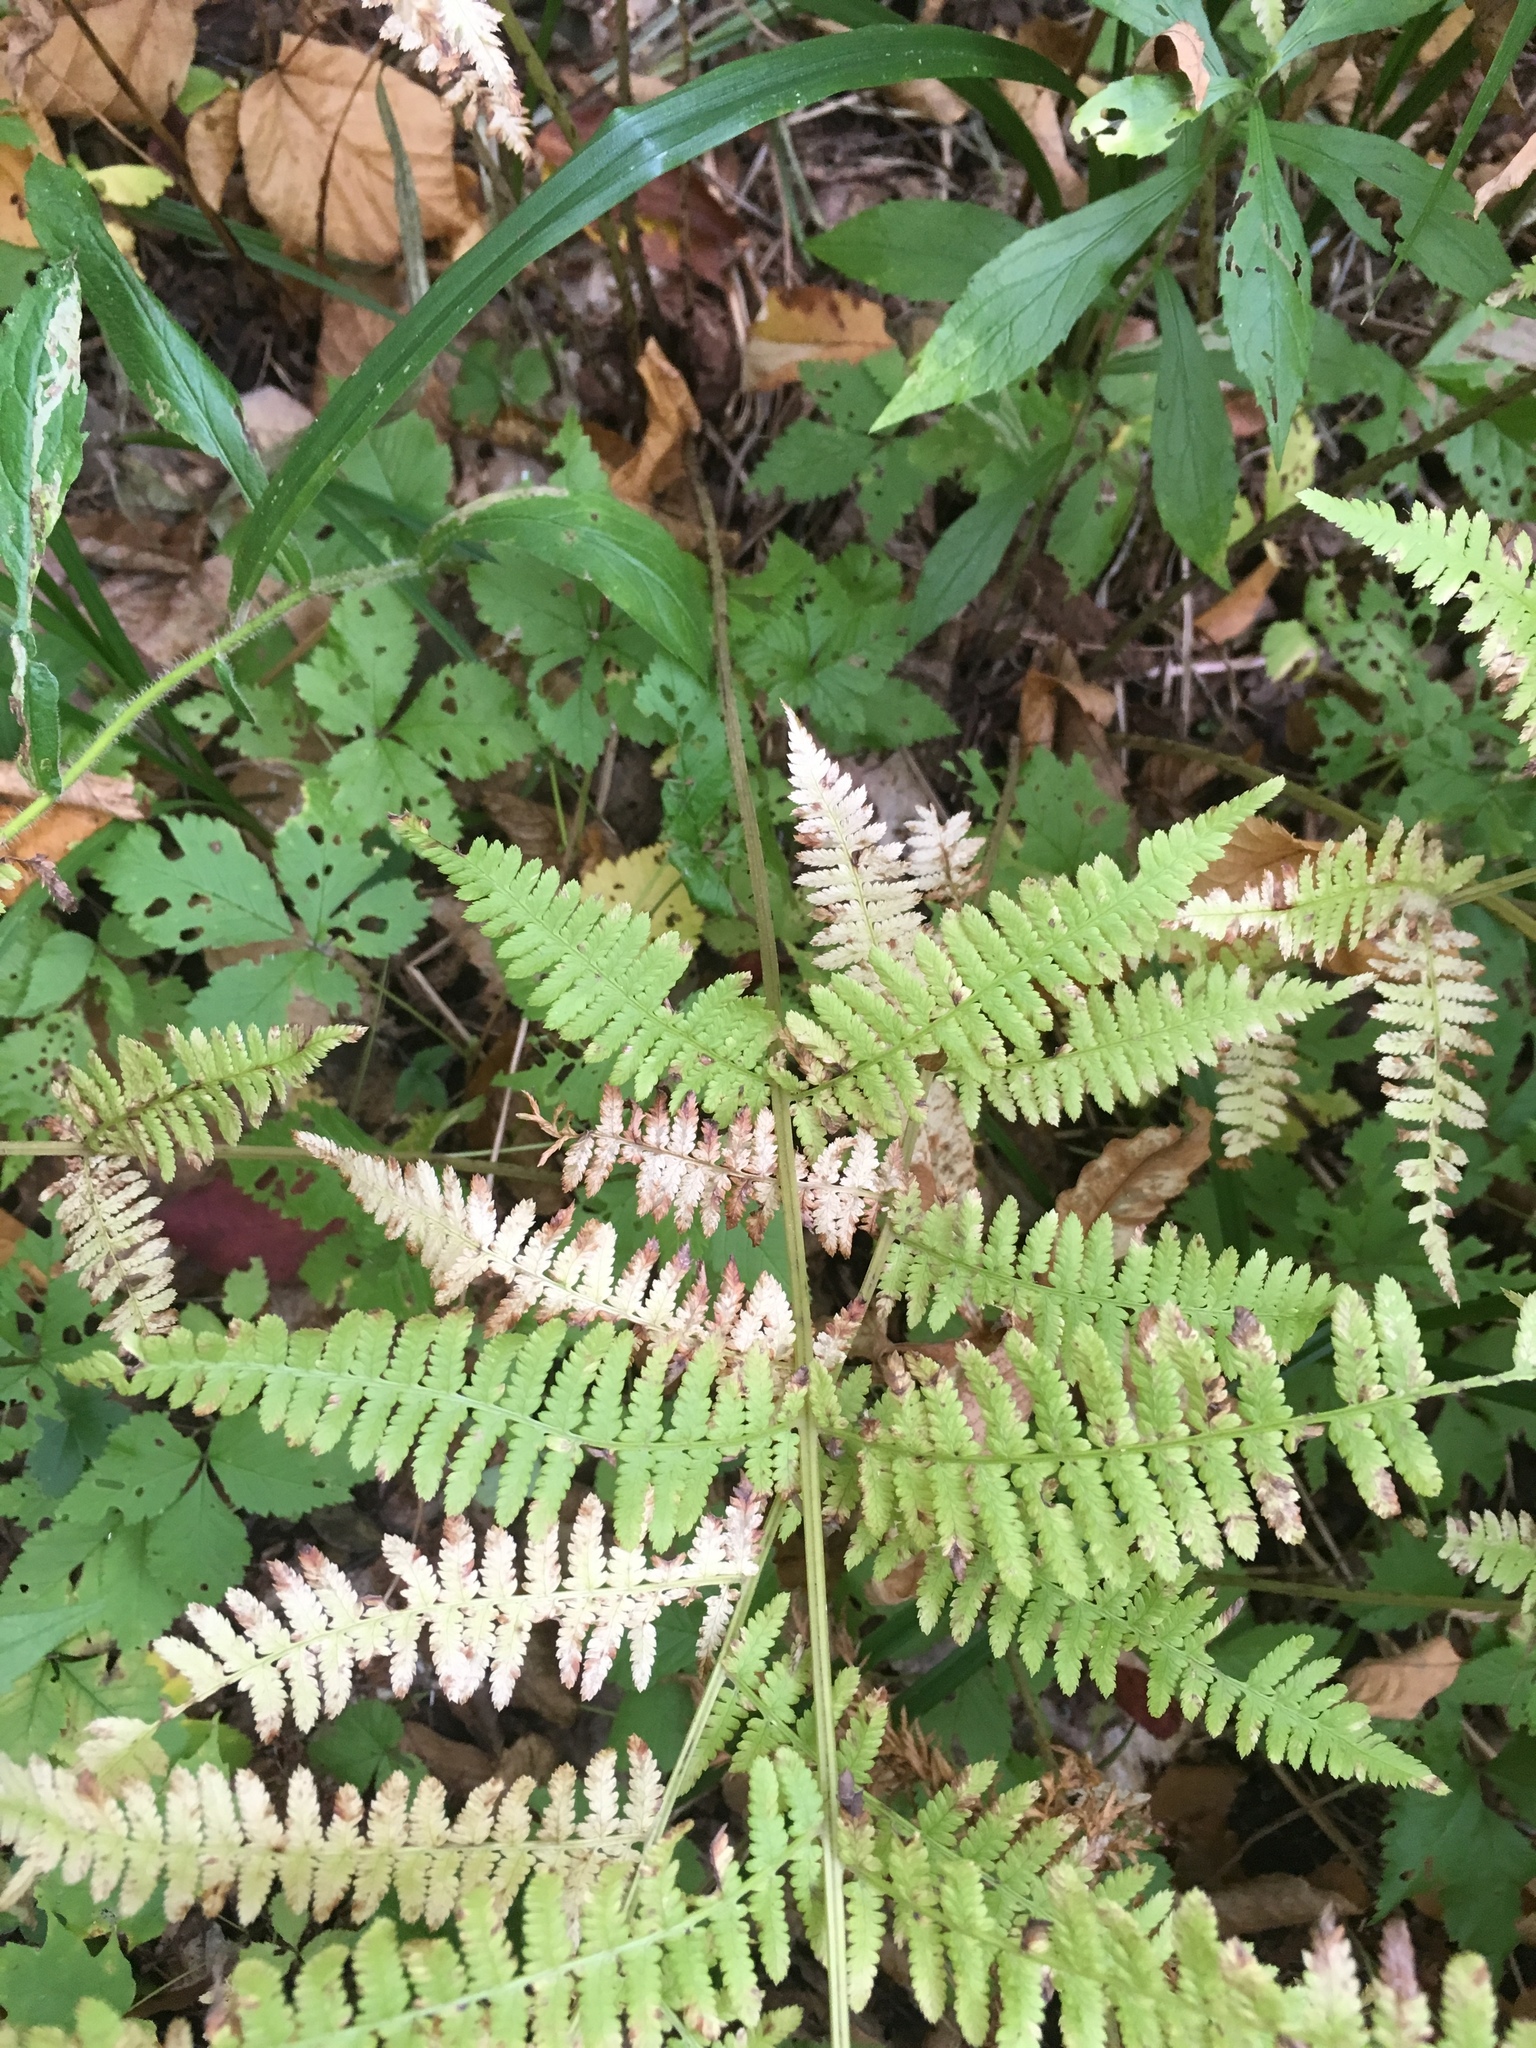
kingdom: Plantae
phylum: Tracheophyta
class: Polypodiopsida
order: Polypodiales
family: Athyriaceae
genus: Athyrium
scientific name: Athyrium angustum
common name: Northern lady fern
